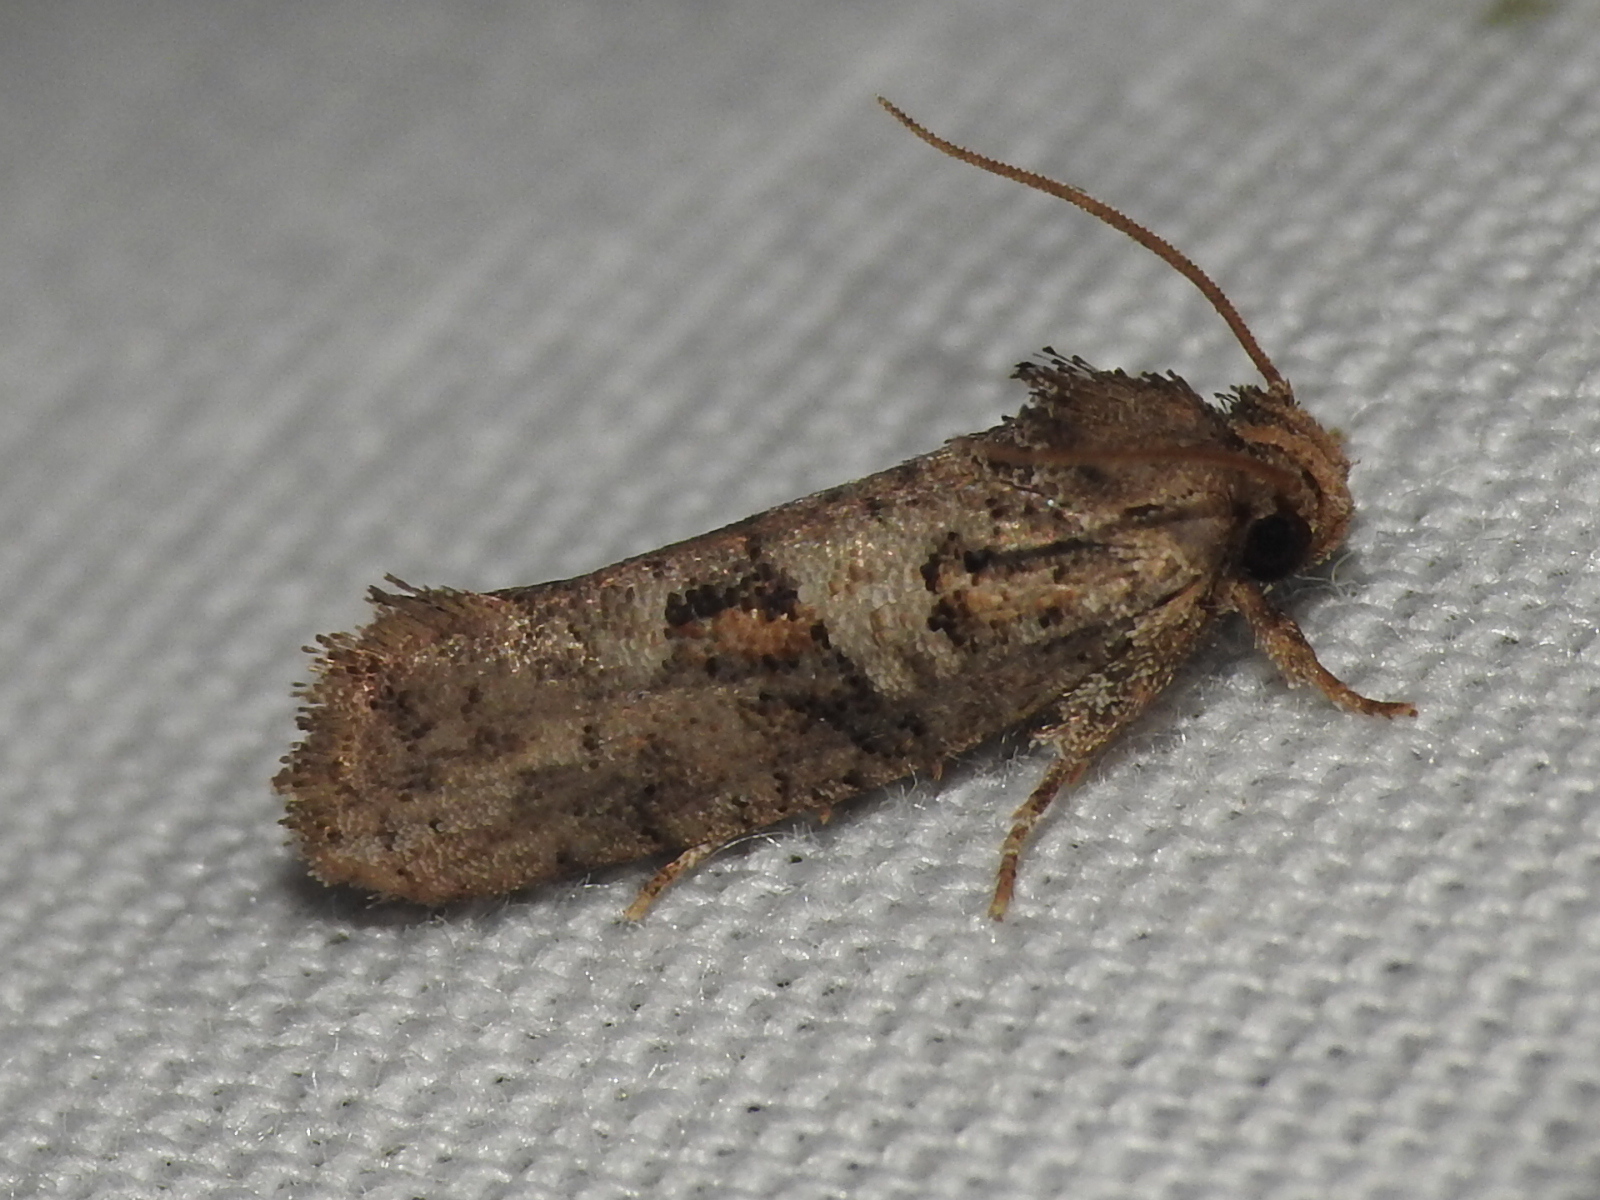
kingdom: Animalia
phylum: Arthropoda
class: Insecta
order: Lepidoptera
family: Tineidae
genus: Acrolophus
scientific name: Acrolophus piger
